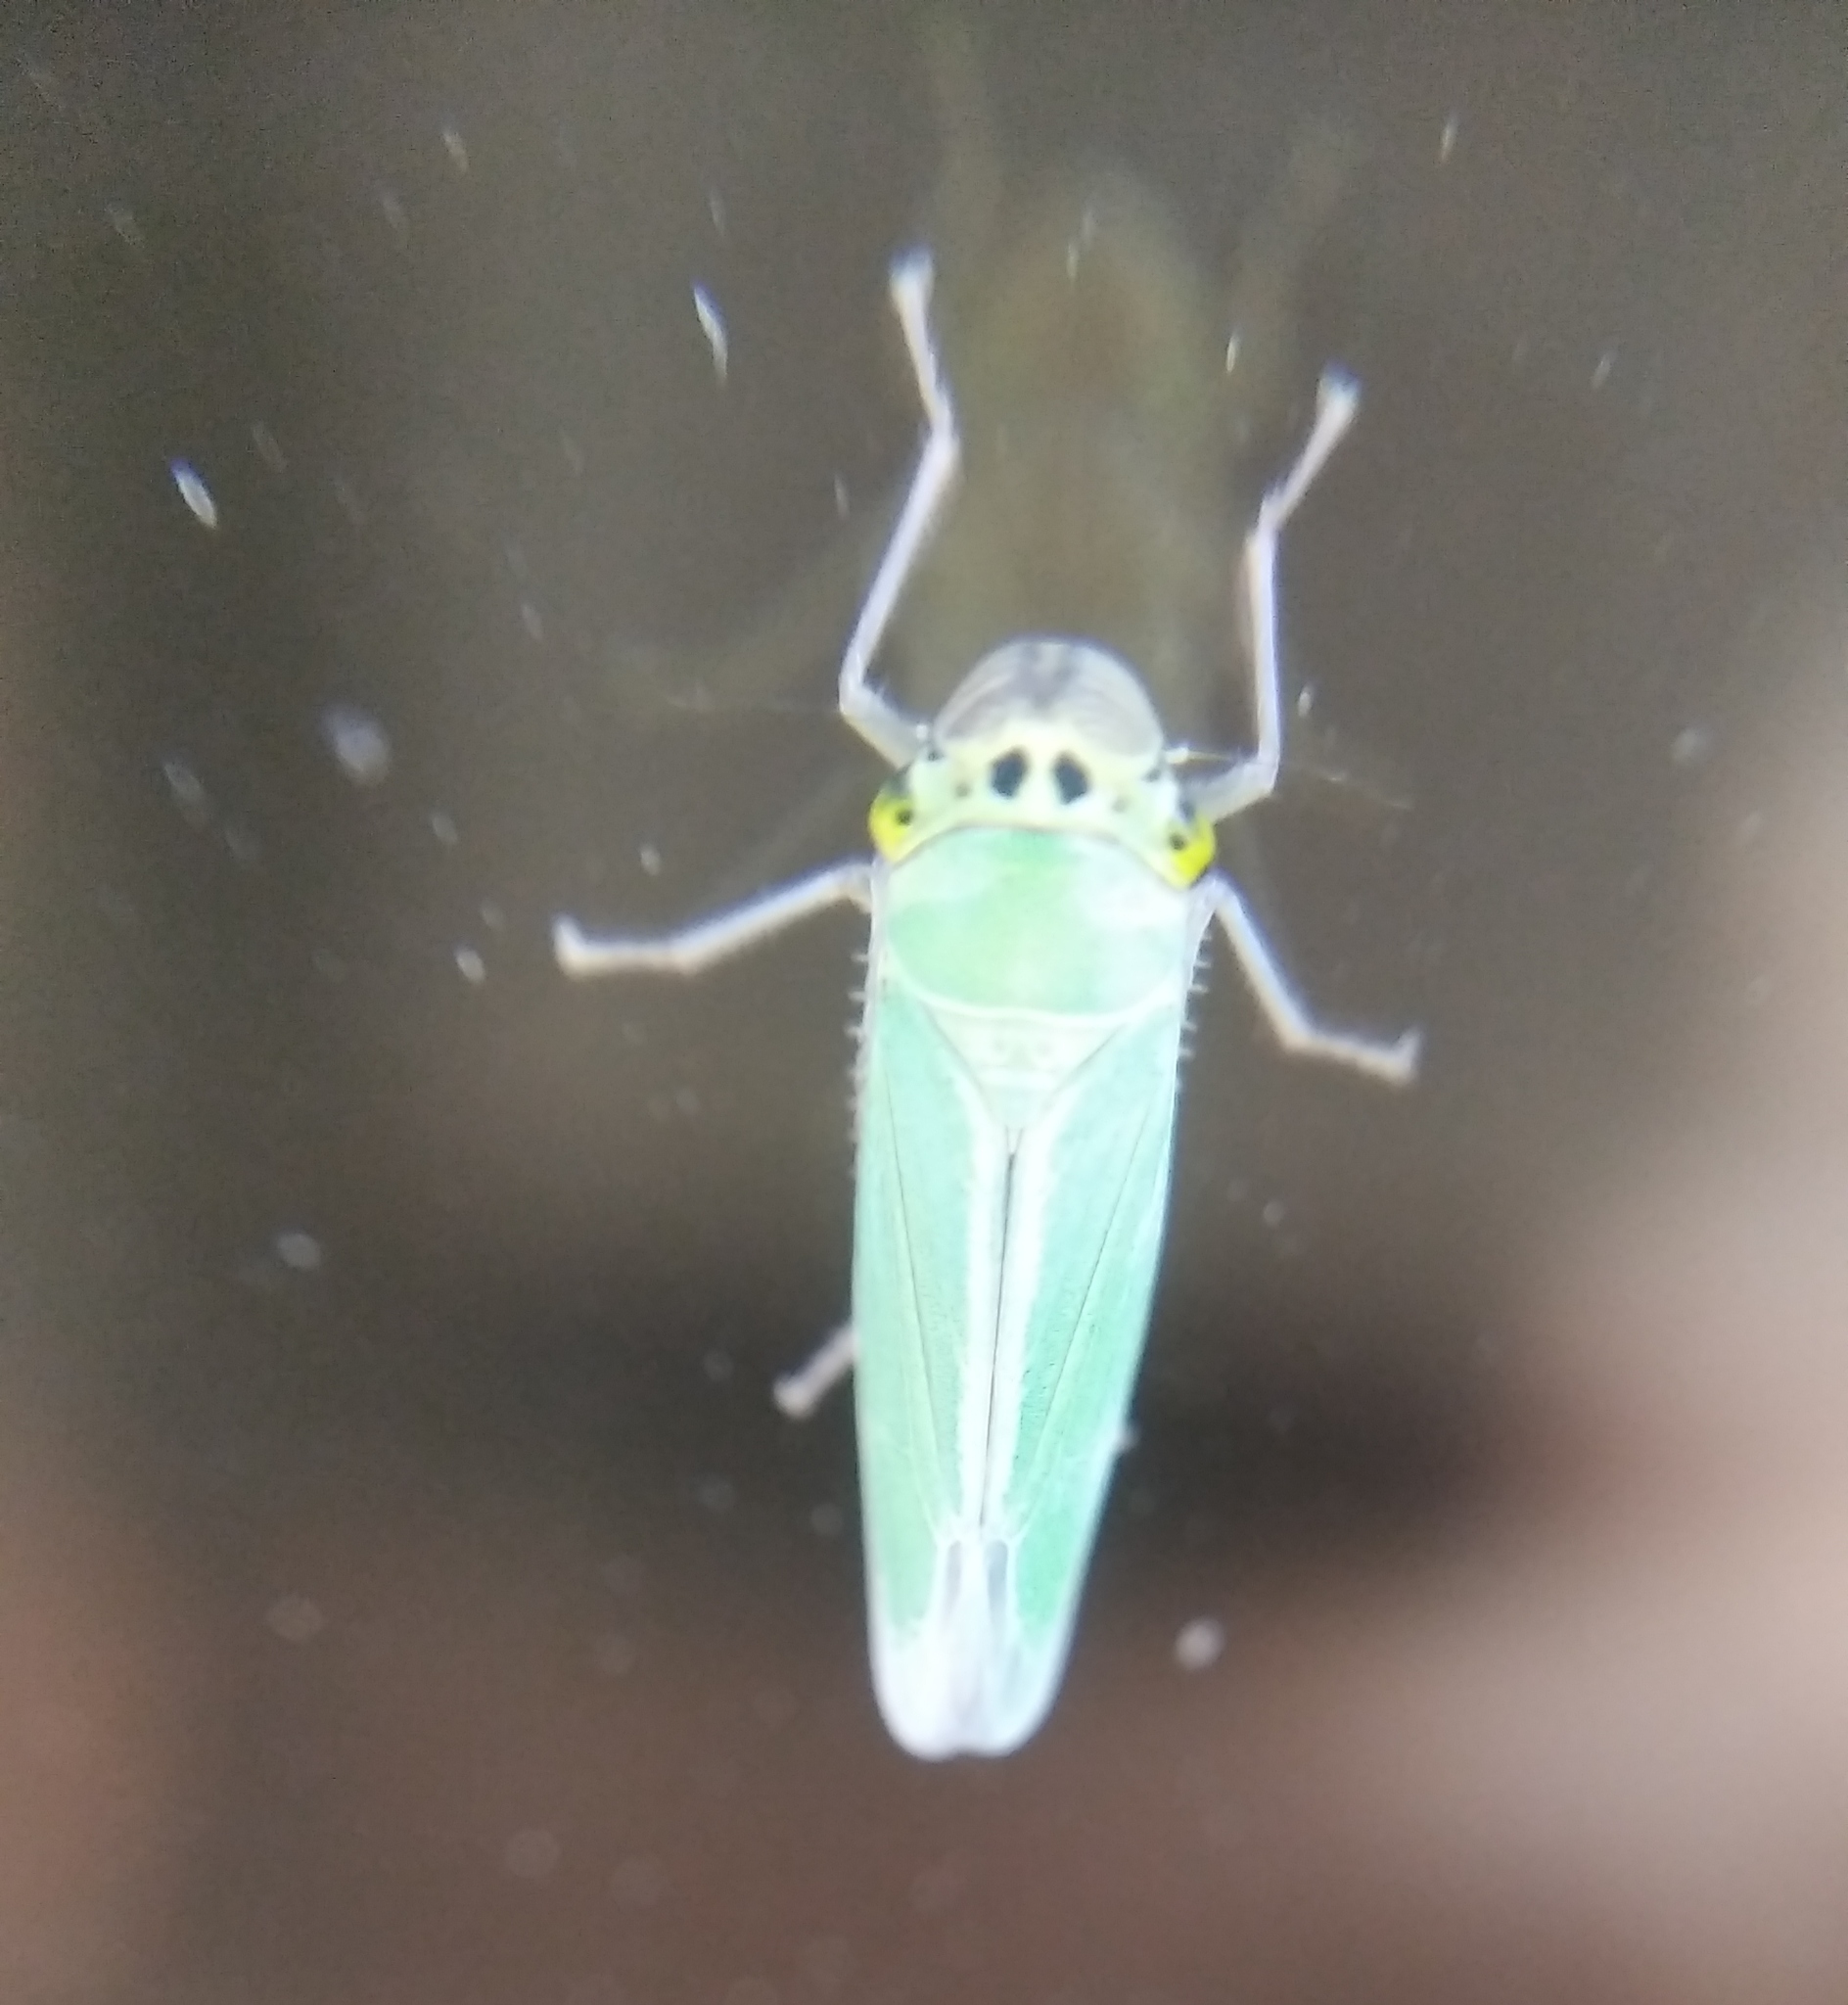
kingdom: Animalia
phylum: Arthropoda
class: Insecta
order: Hemiptera
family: Cicadellidae
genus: Cicadella
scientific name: Cicadella viridis
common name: Leafhopper
